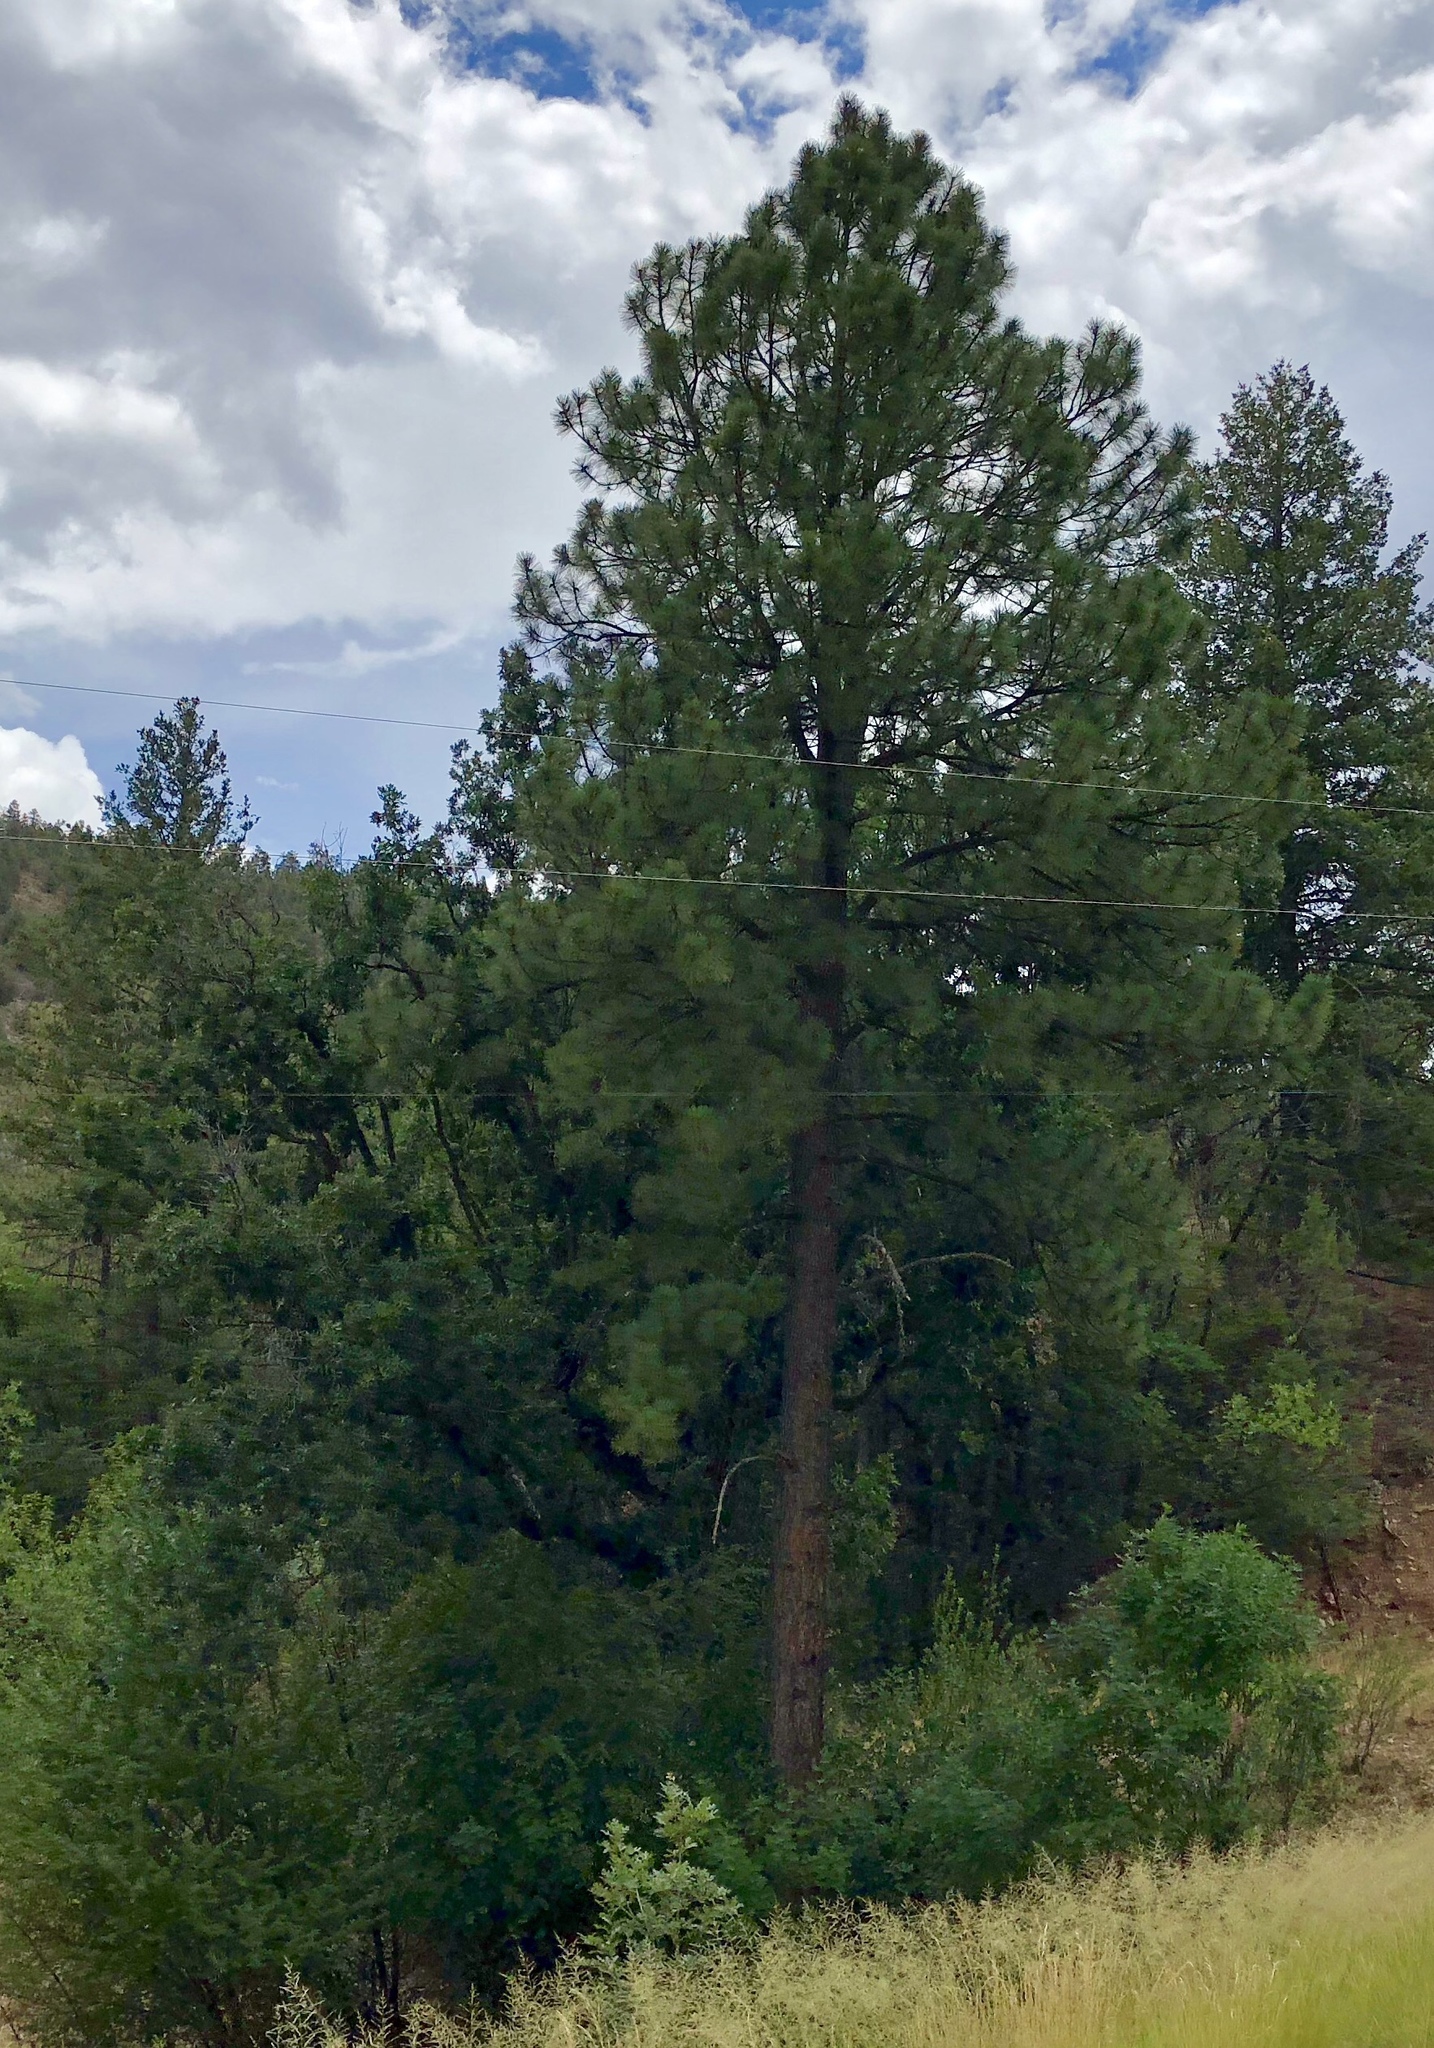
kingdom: Plantae
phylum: Tracheophyta
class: Pinopsida
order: Pinales
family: Pinaceae
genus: Pinus
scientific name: Pinus ponderosa
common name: Western yellow-pine
